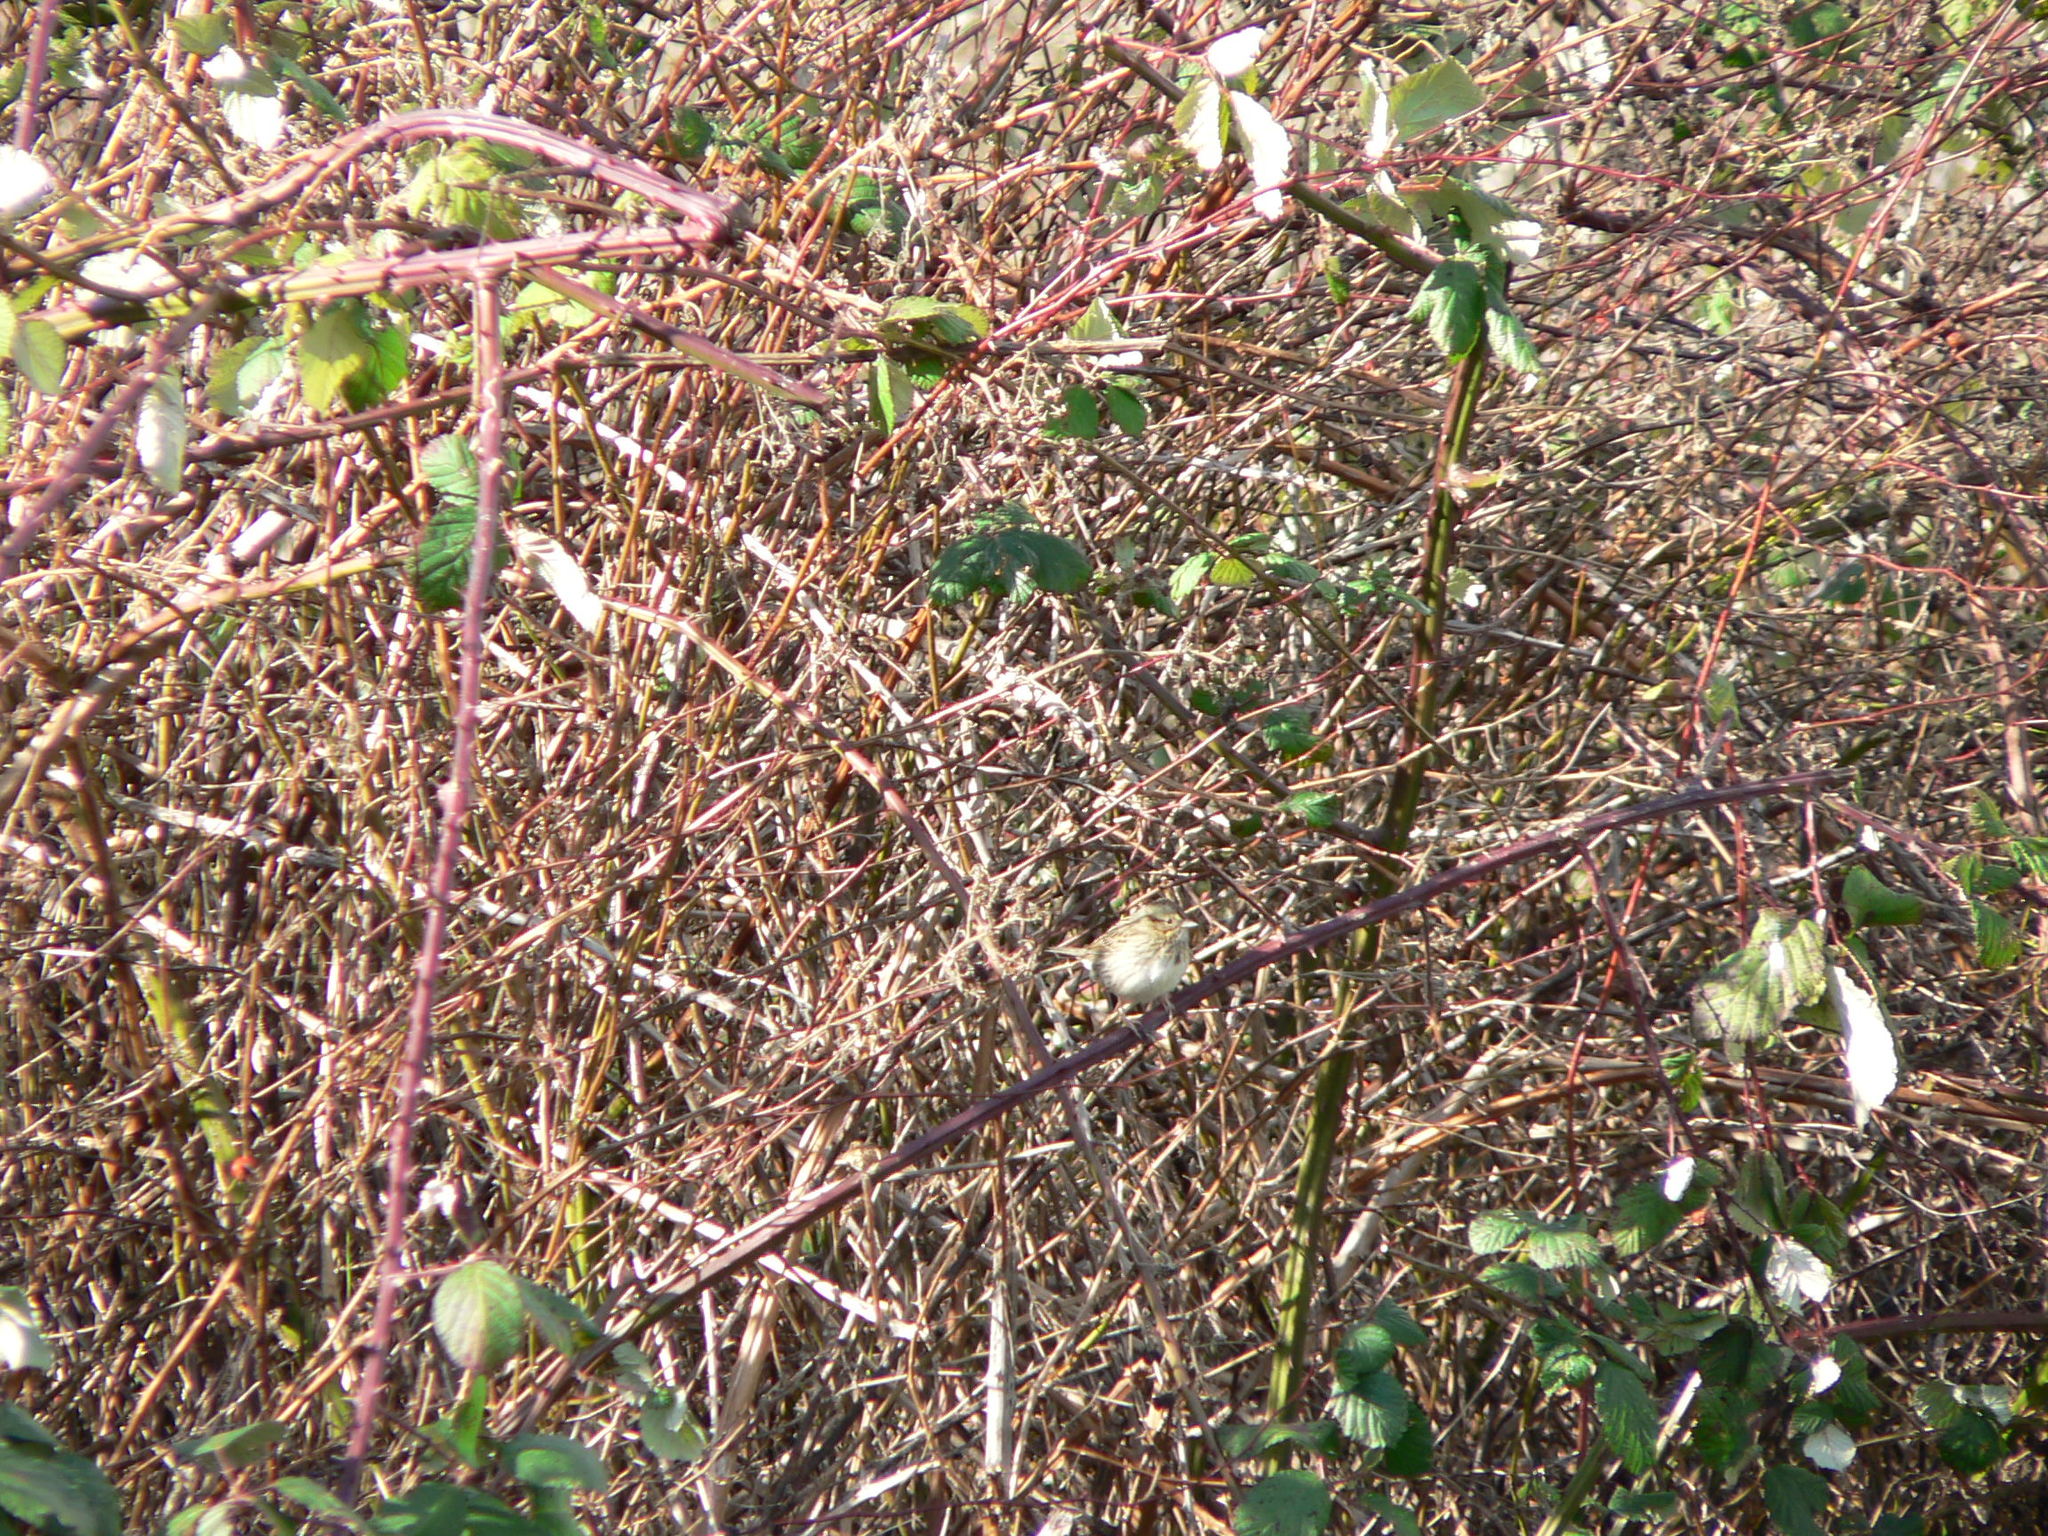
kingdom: Animalia
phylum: Chordata
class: Aves
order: Passeriformes
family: Passerellidae
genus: Melospiza
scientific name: Melospiza lincolnii
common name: Lincoln's sparrow
